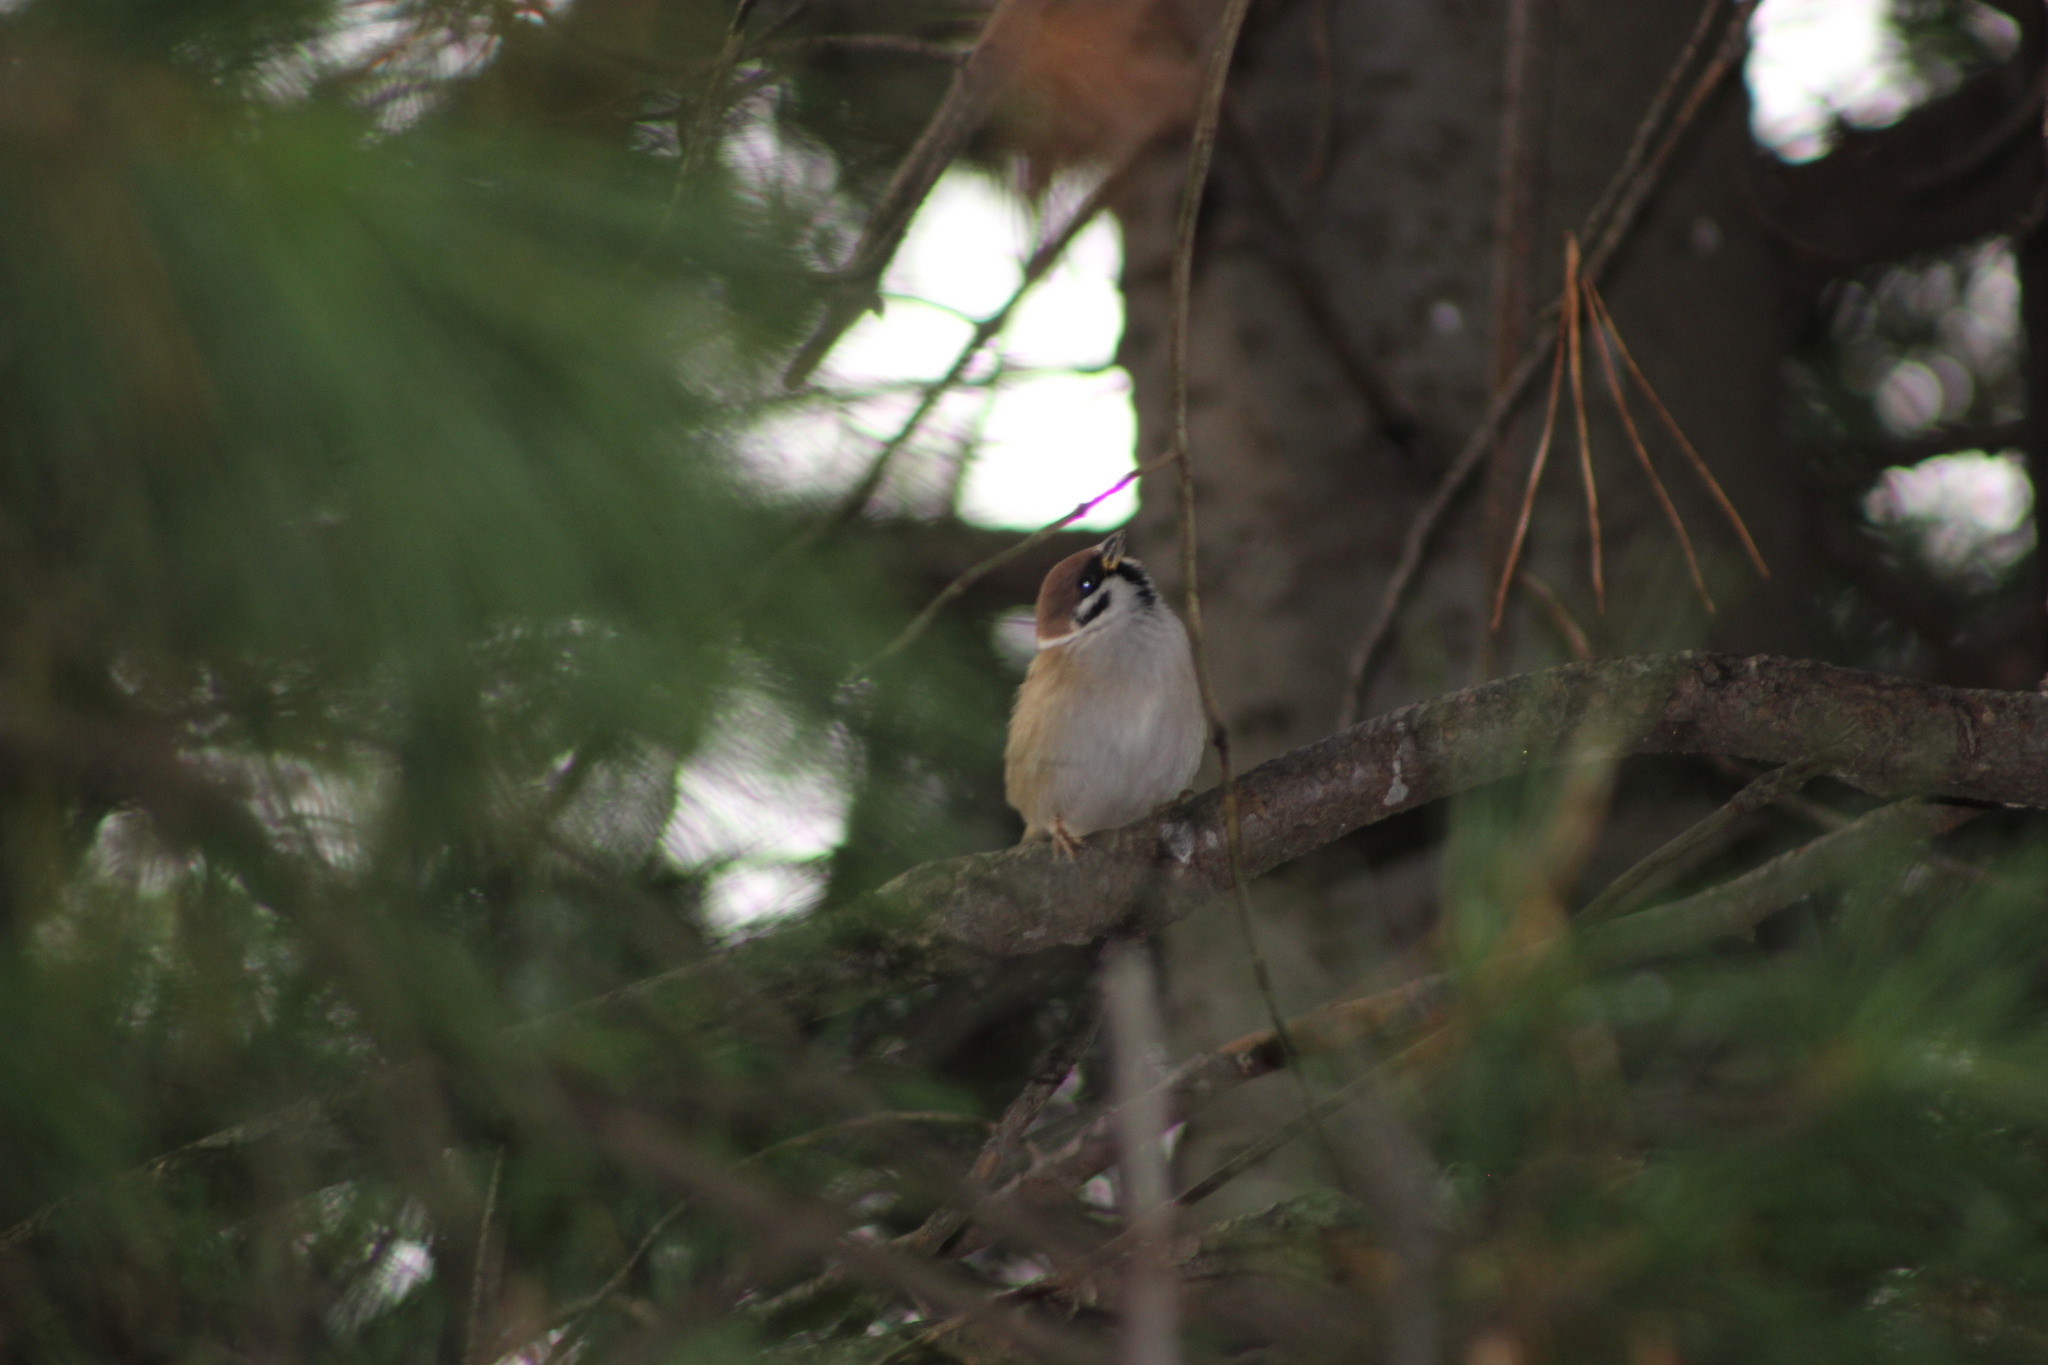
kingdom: Animalia
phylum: Chordata
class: Aves
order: Passeriformes
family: Passeridae
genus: Passer
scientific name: Passer montanus
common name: Eurasian tree sparrow
